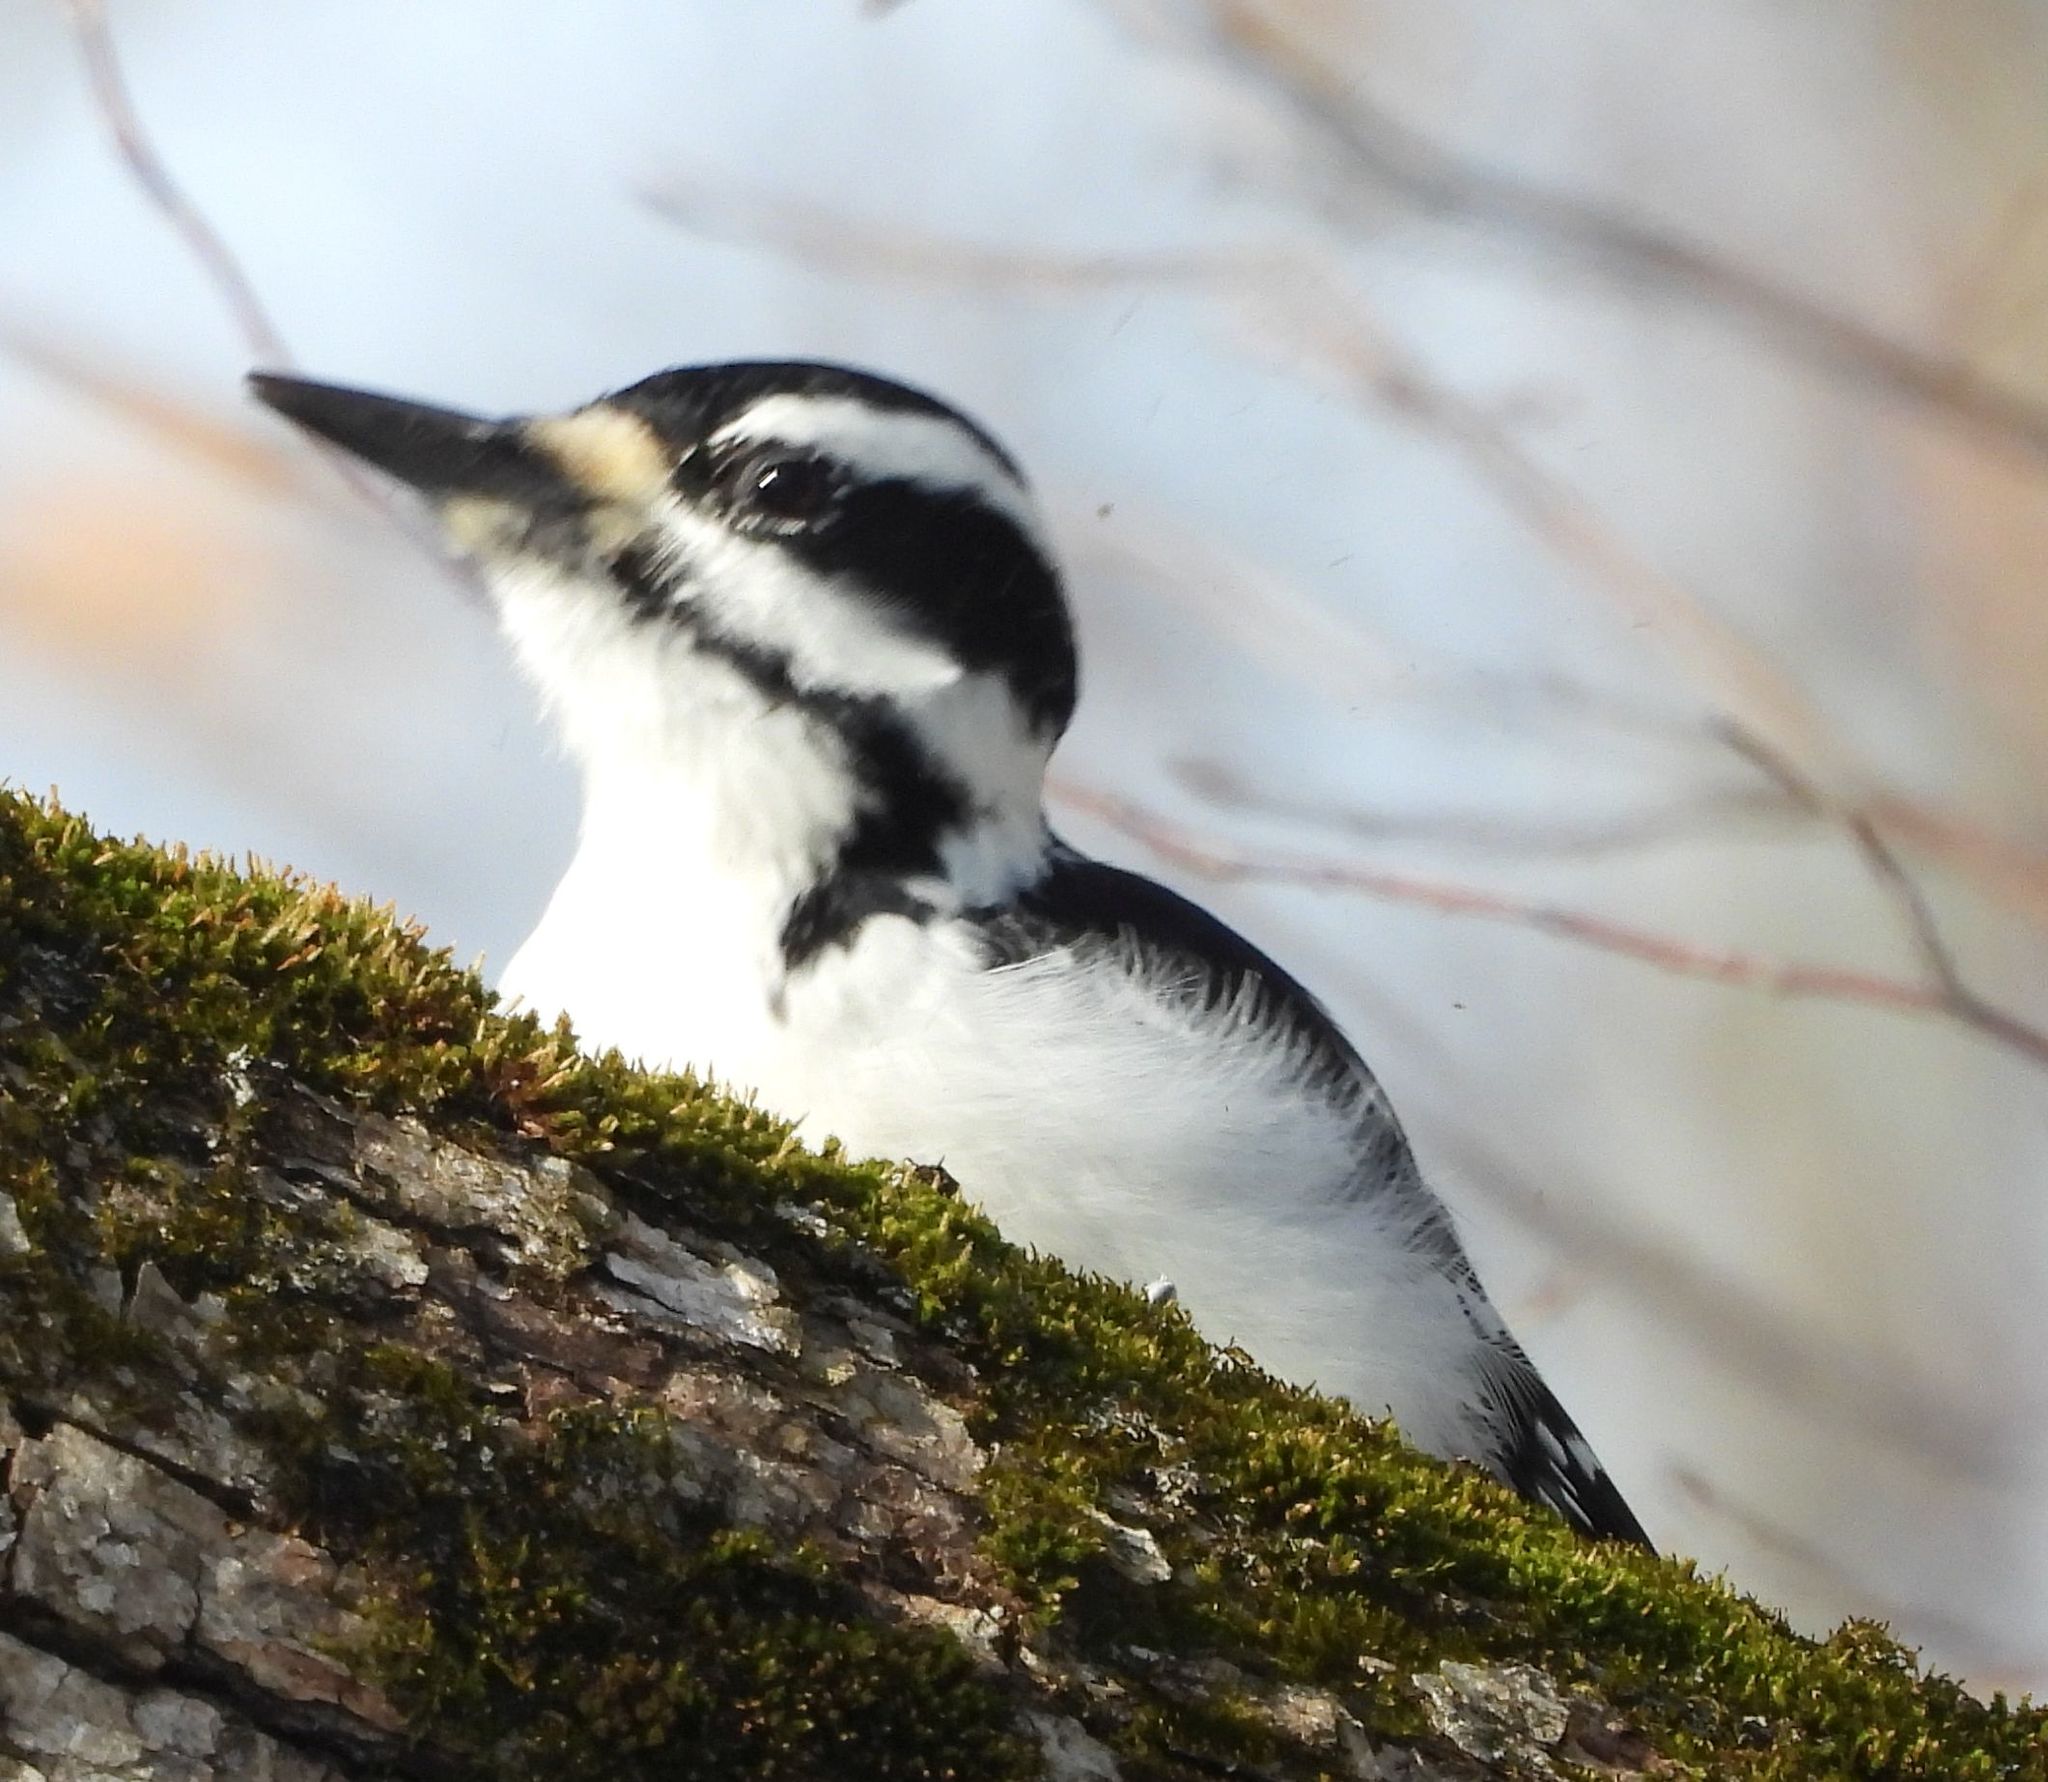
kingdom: Animalia
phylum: Chordata
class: Aves
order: Piciformes
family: Picidae
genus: Leuconotopicus
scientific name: Leuconotopicus villosus
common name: Hairy woodpecker
